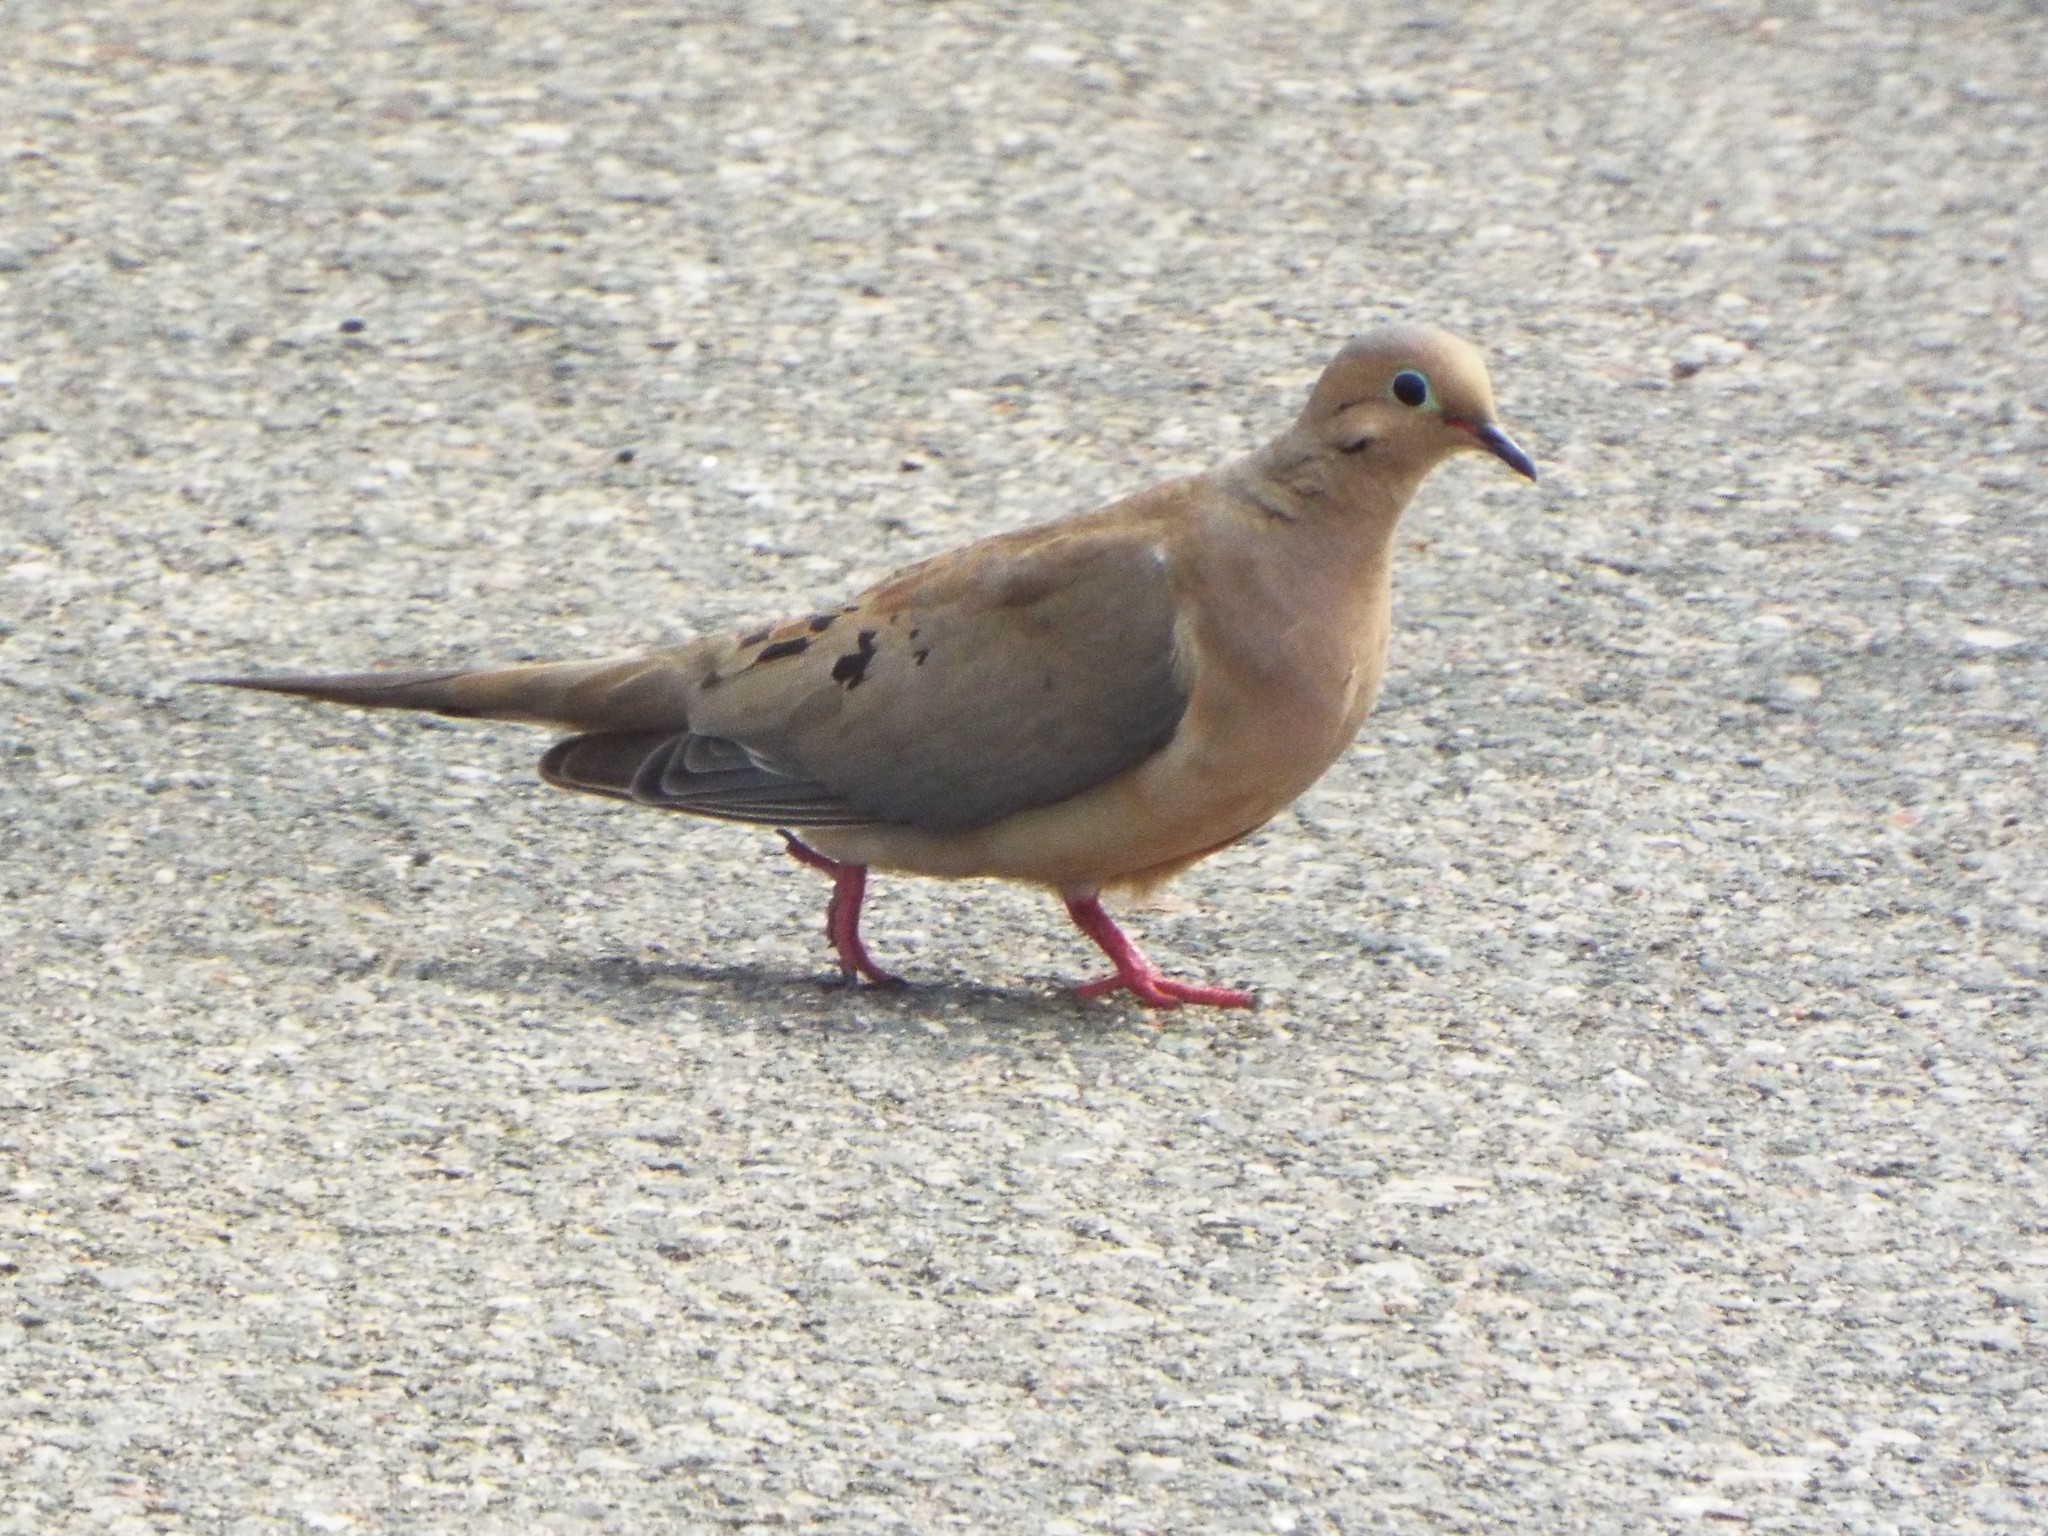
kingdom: Animalia
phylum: Chordata
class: Aves
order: Columbiformes
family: Columbidae
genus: Zenaida
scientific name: Zenaida macroura
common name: Mourning dove
